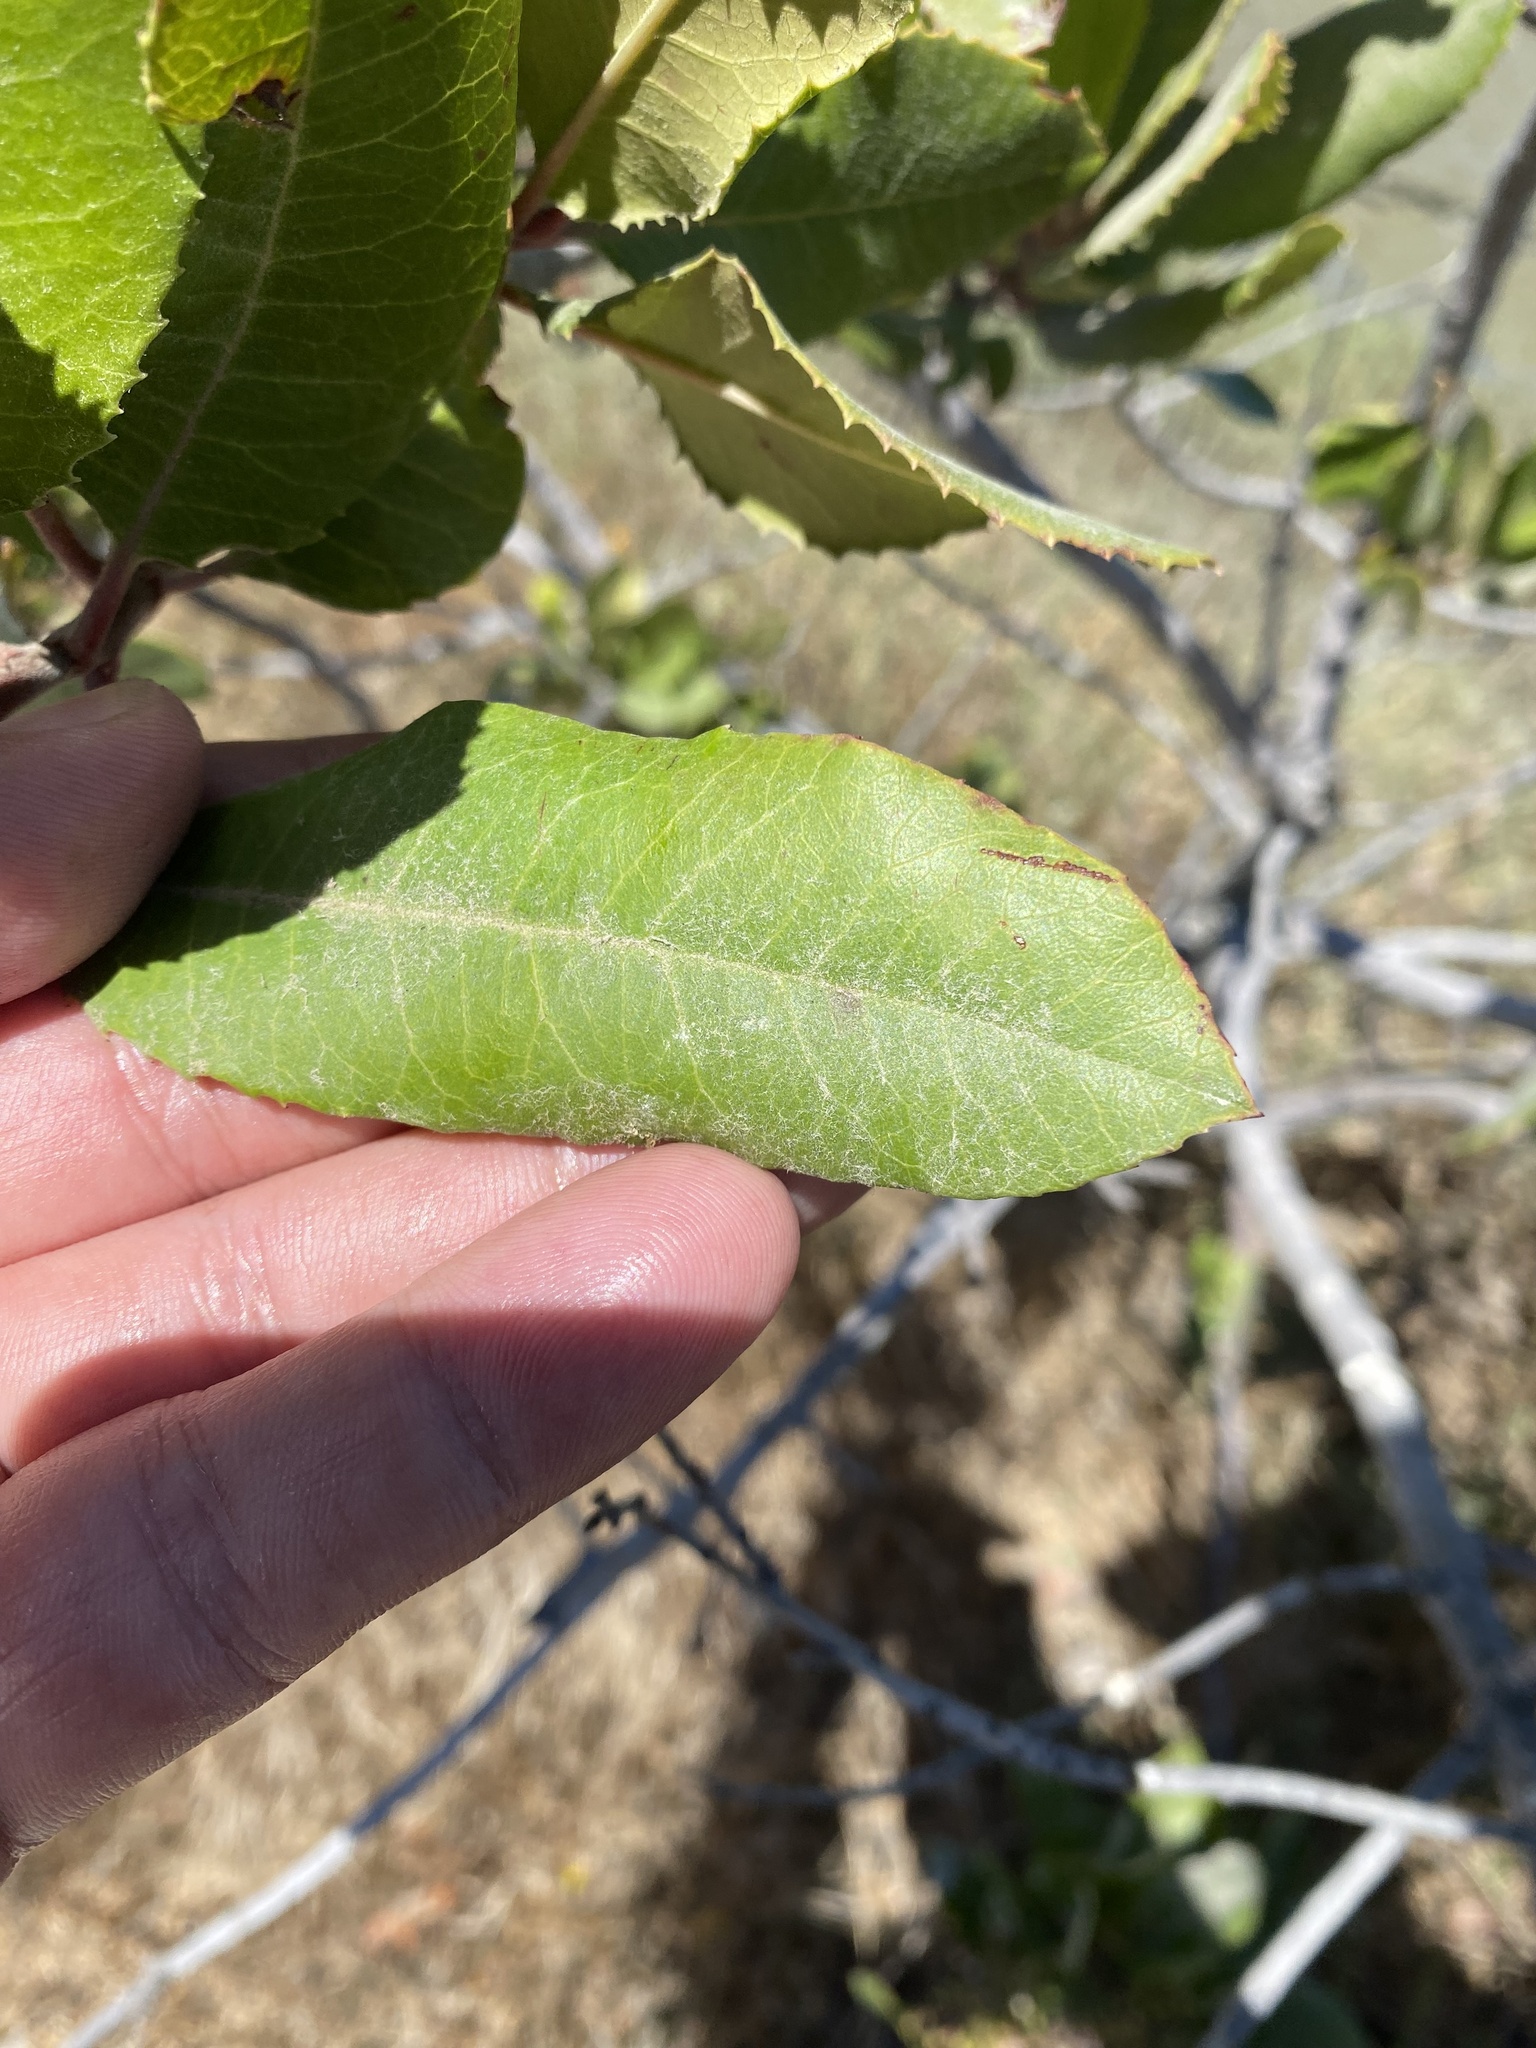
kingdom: Plantae
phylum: Tracheophyta
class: Magnoliopsida
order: Rosales
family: Rosaceae
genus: Heteromeles
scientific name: Heteromeles arbutifolia
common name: California-holly
